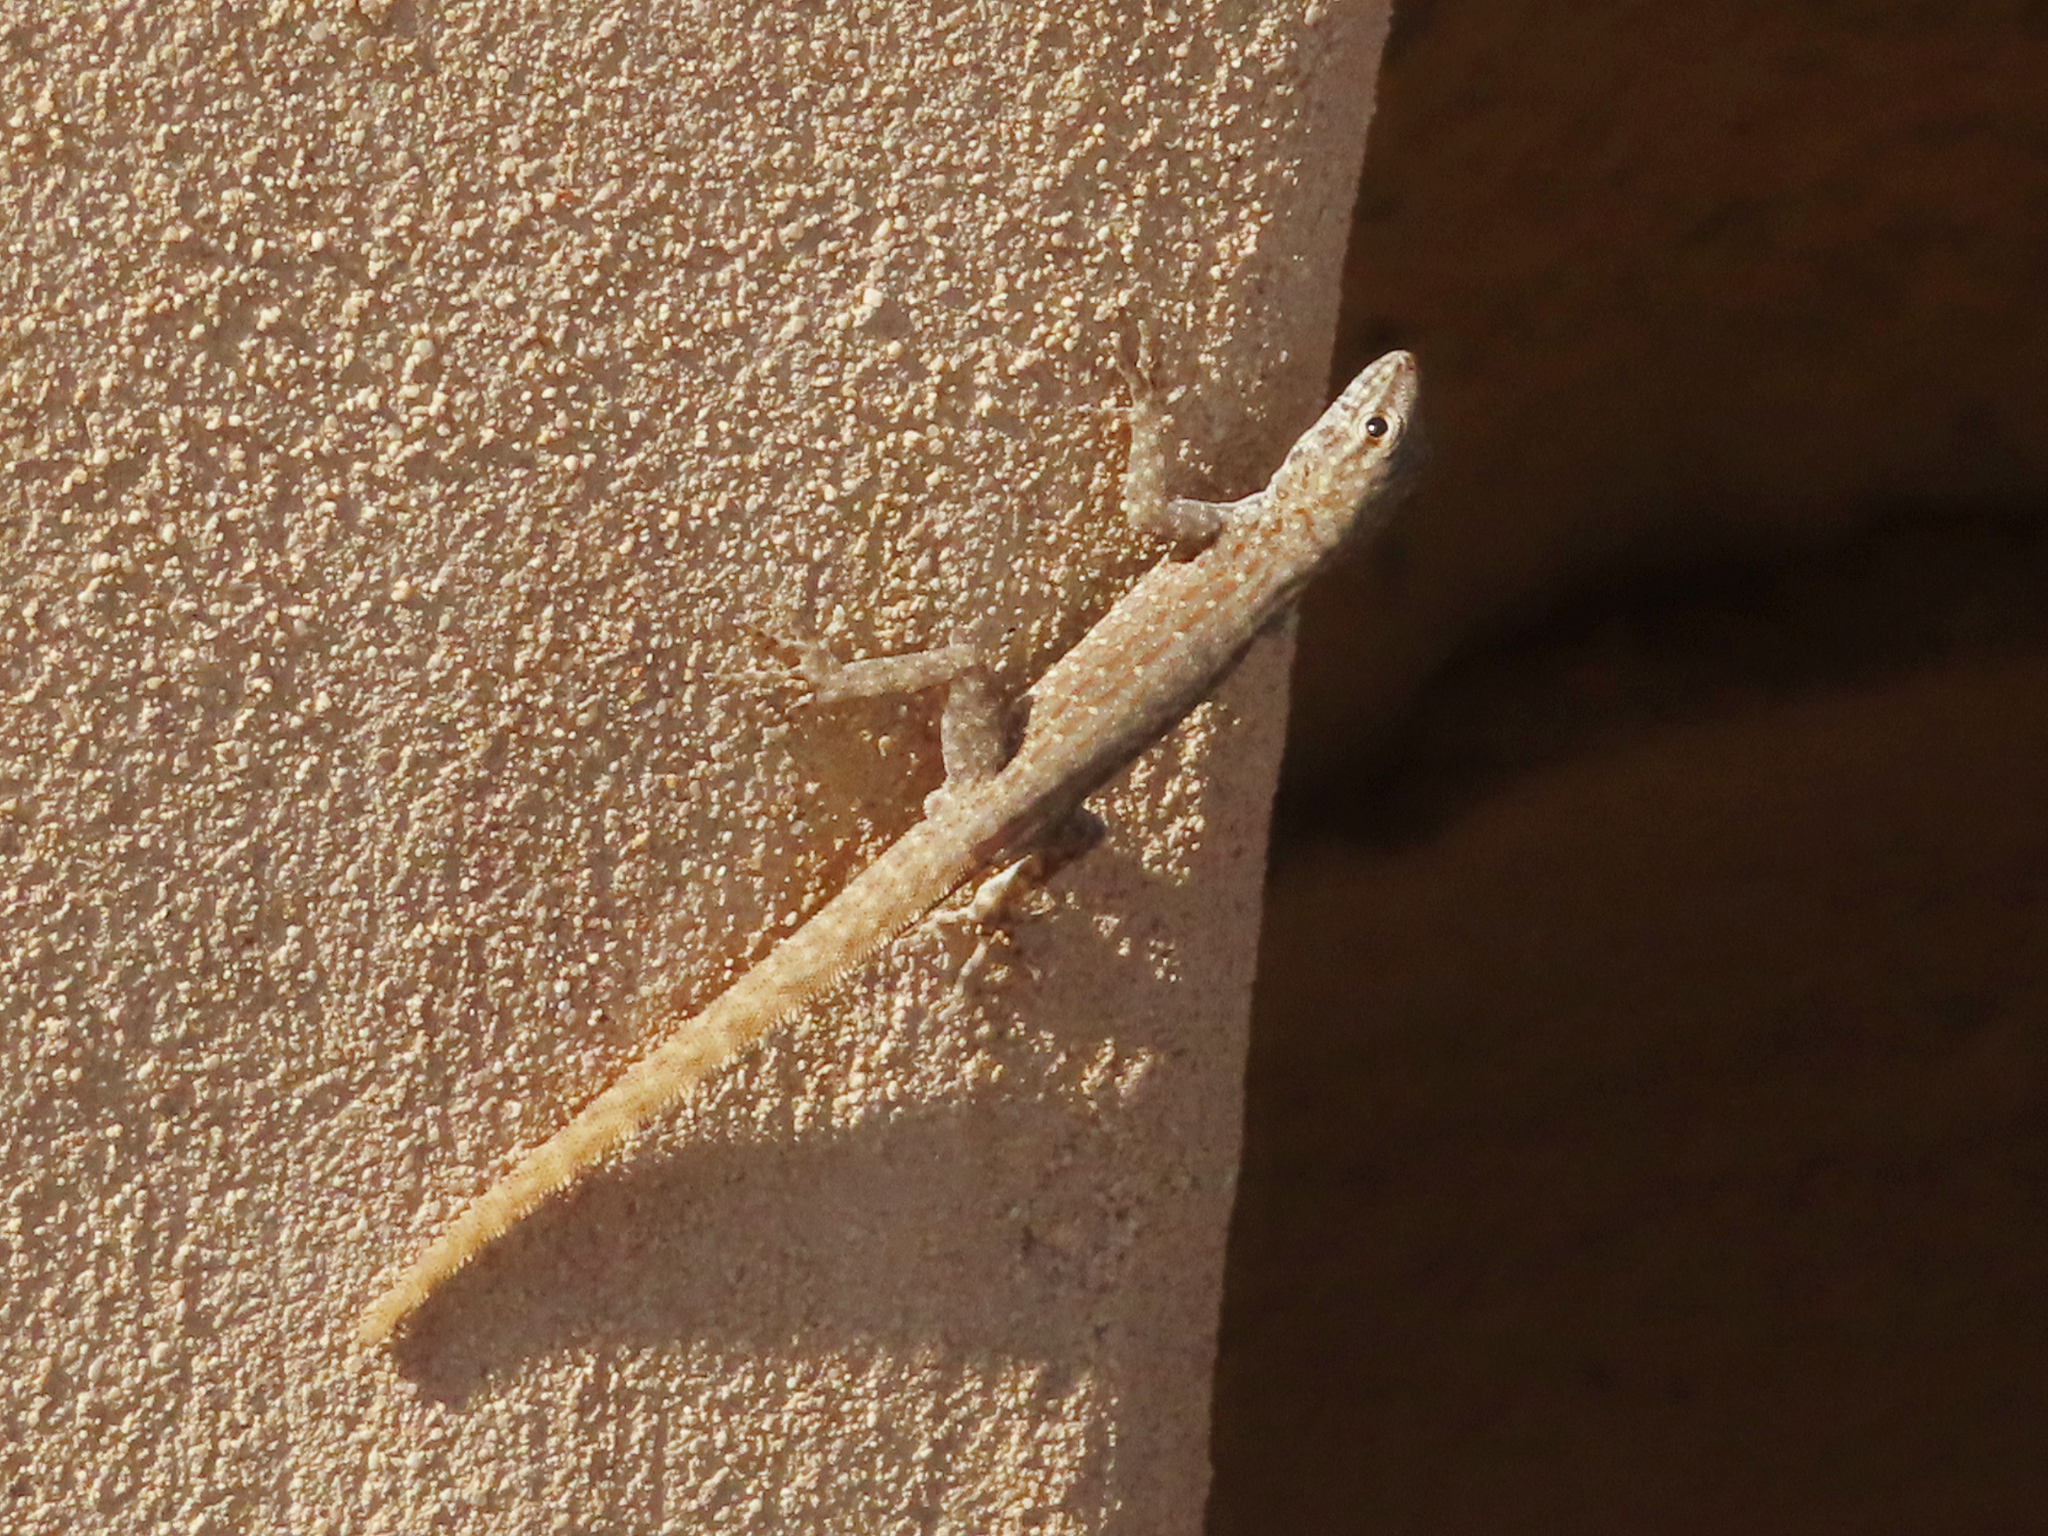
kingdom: Animalia
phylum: Chordata
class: Squamata
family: Sphaerodactylidae
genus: Pristurus
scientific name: Pristurus rupestris
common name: Blanford’s semaphore gecko
